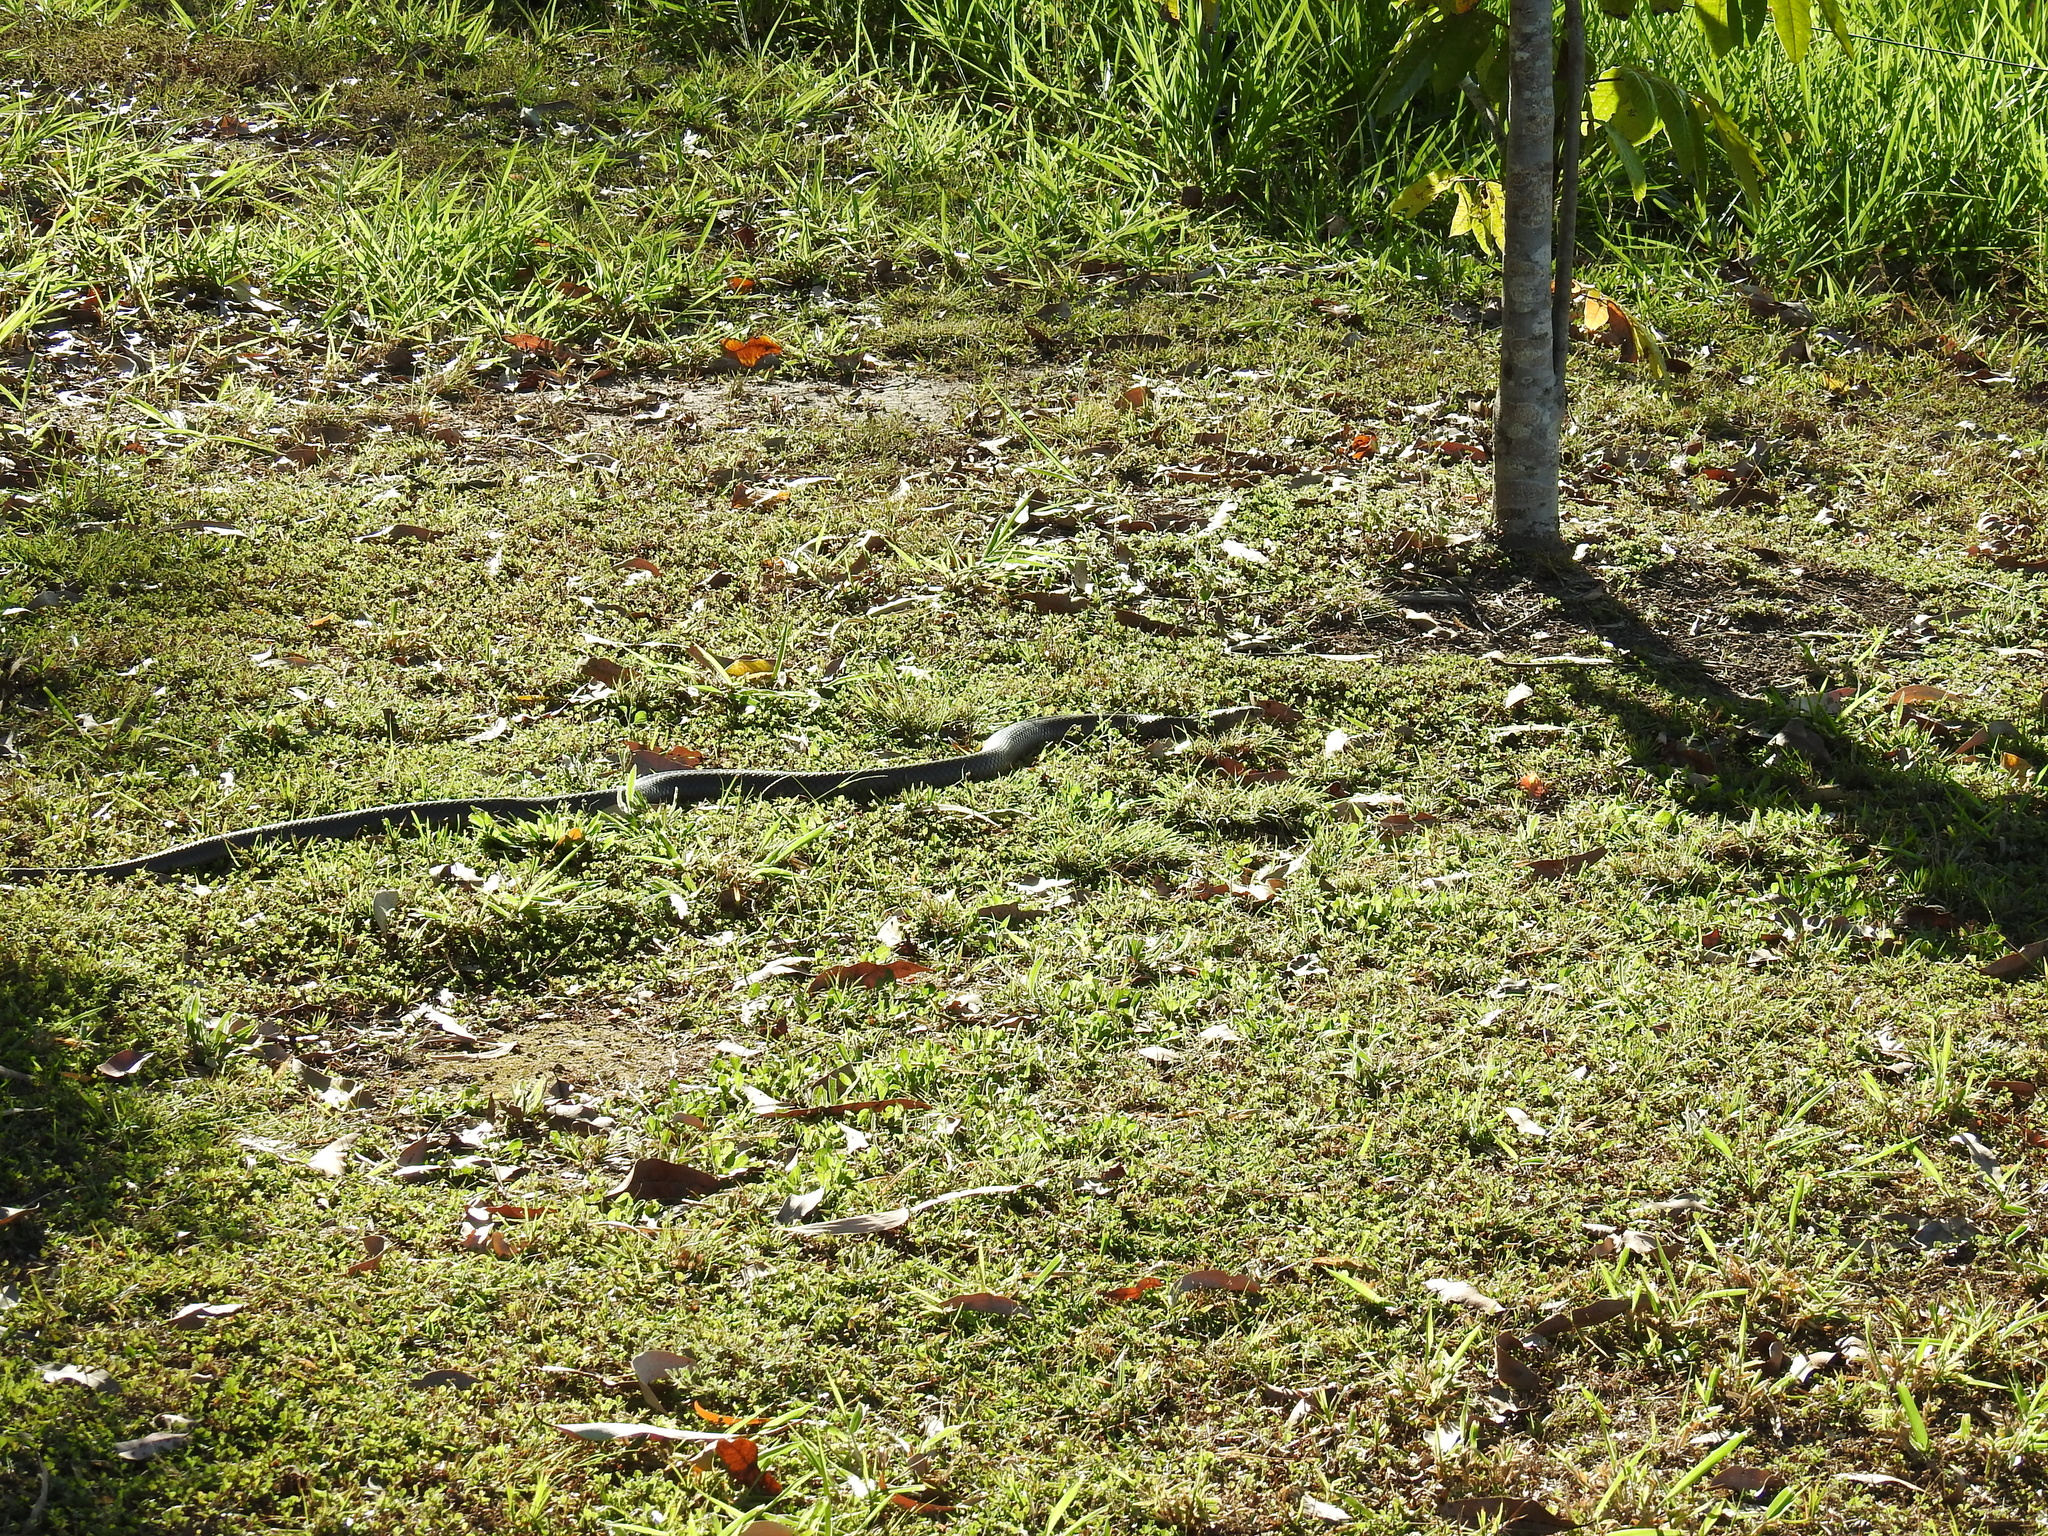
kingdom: Animalia
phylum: Chordata
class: Squamata
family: Elapidae
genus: Pseudonaja
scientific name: Pseudonaja textilis
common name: Eastern brown snake
